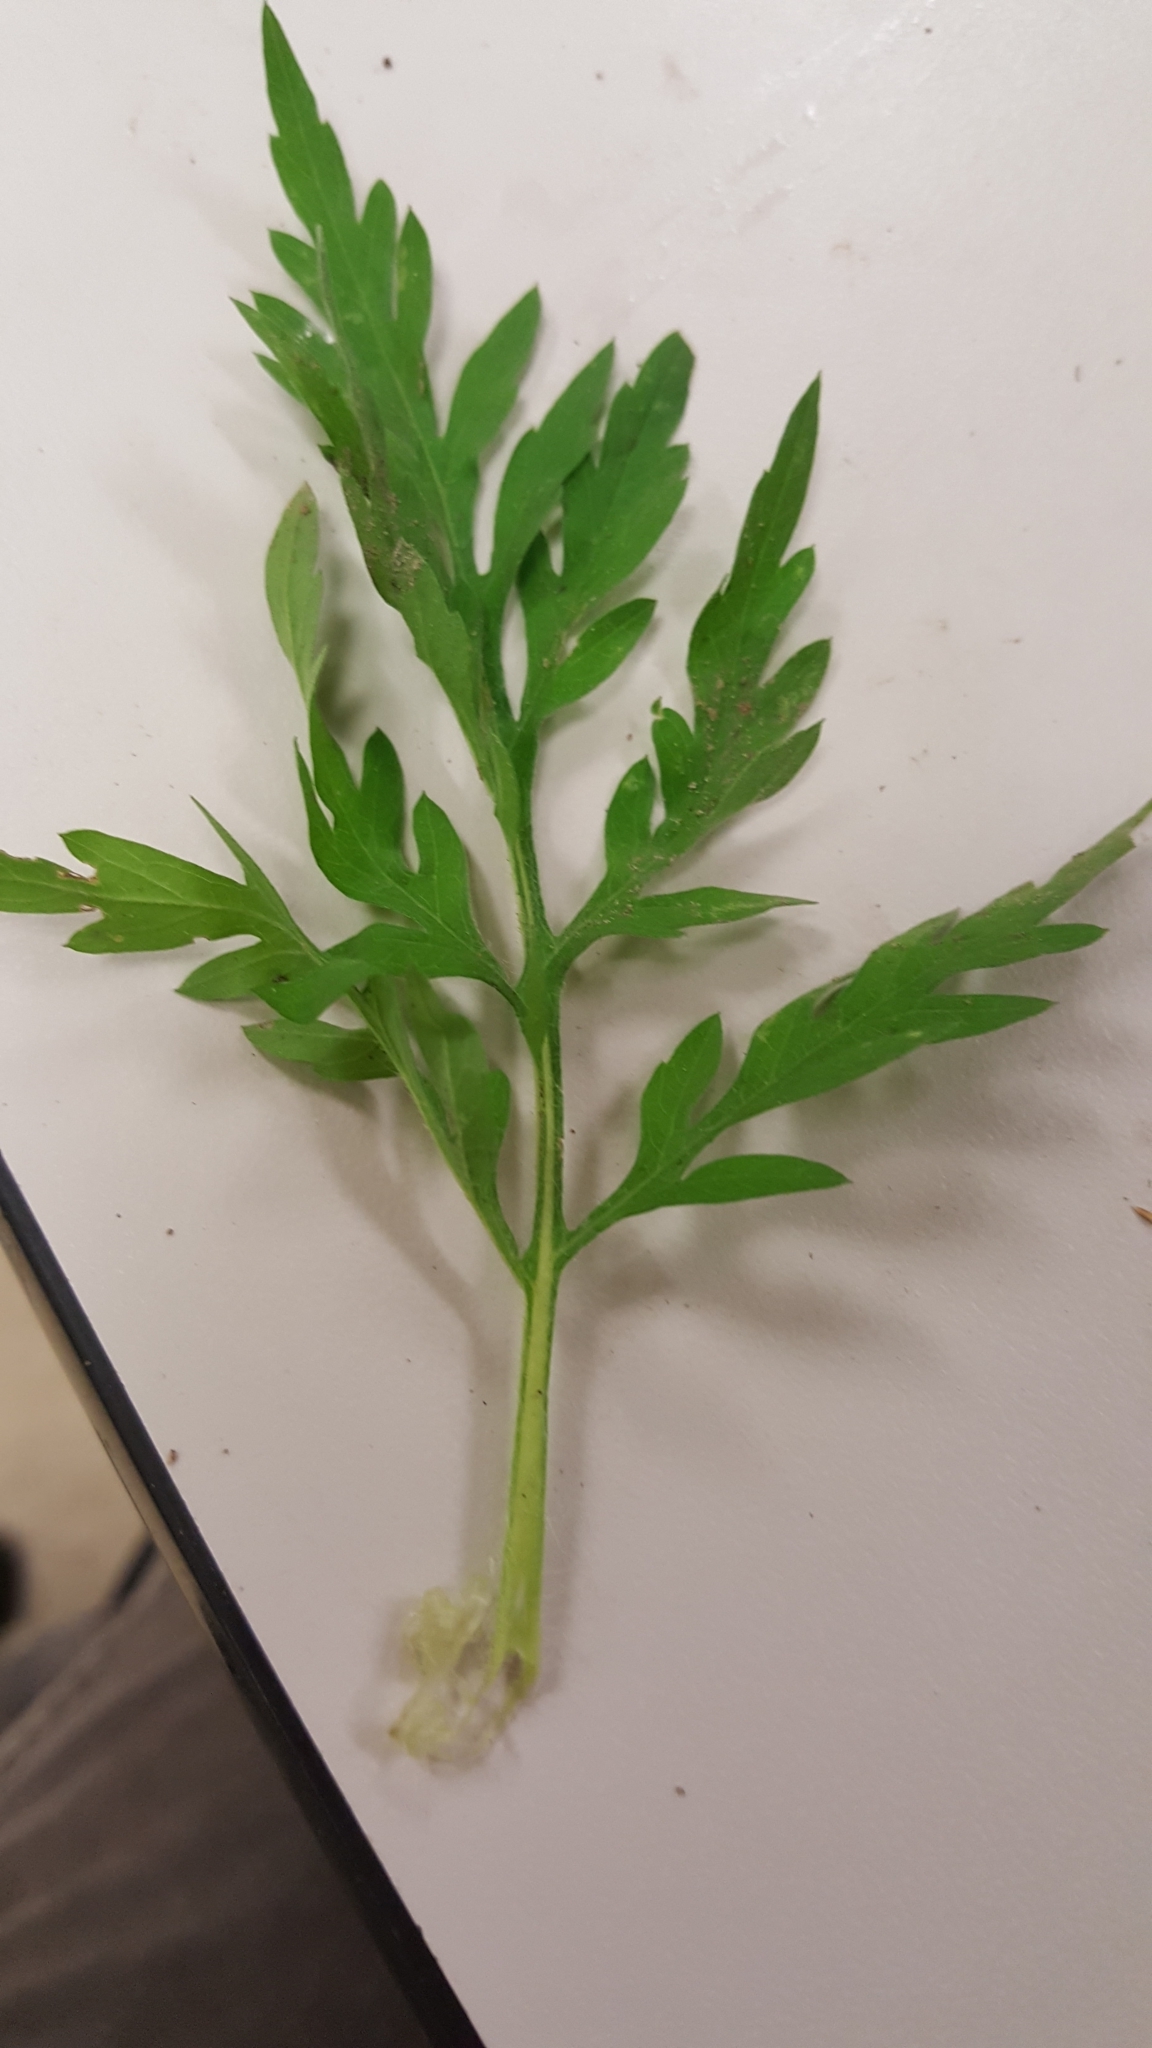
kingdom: Plantae
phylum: Tracheophyta
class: Magnoliopsida
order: Asterales
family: Asteraceae
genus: Ambrosia
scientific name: Ambrosia artemisiifolia
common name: Annual ragweed
